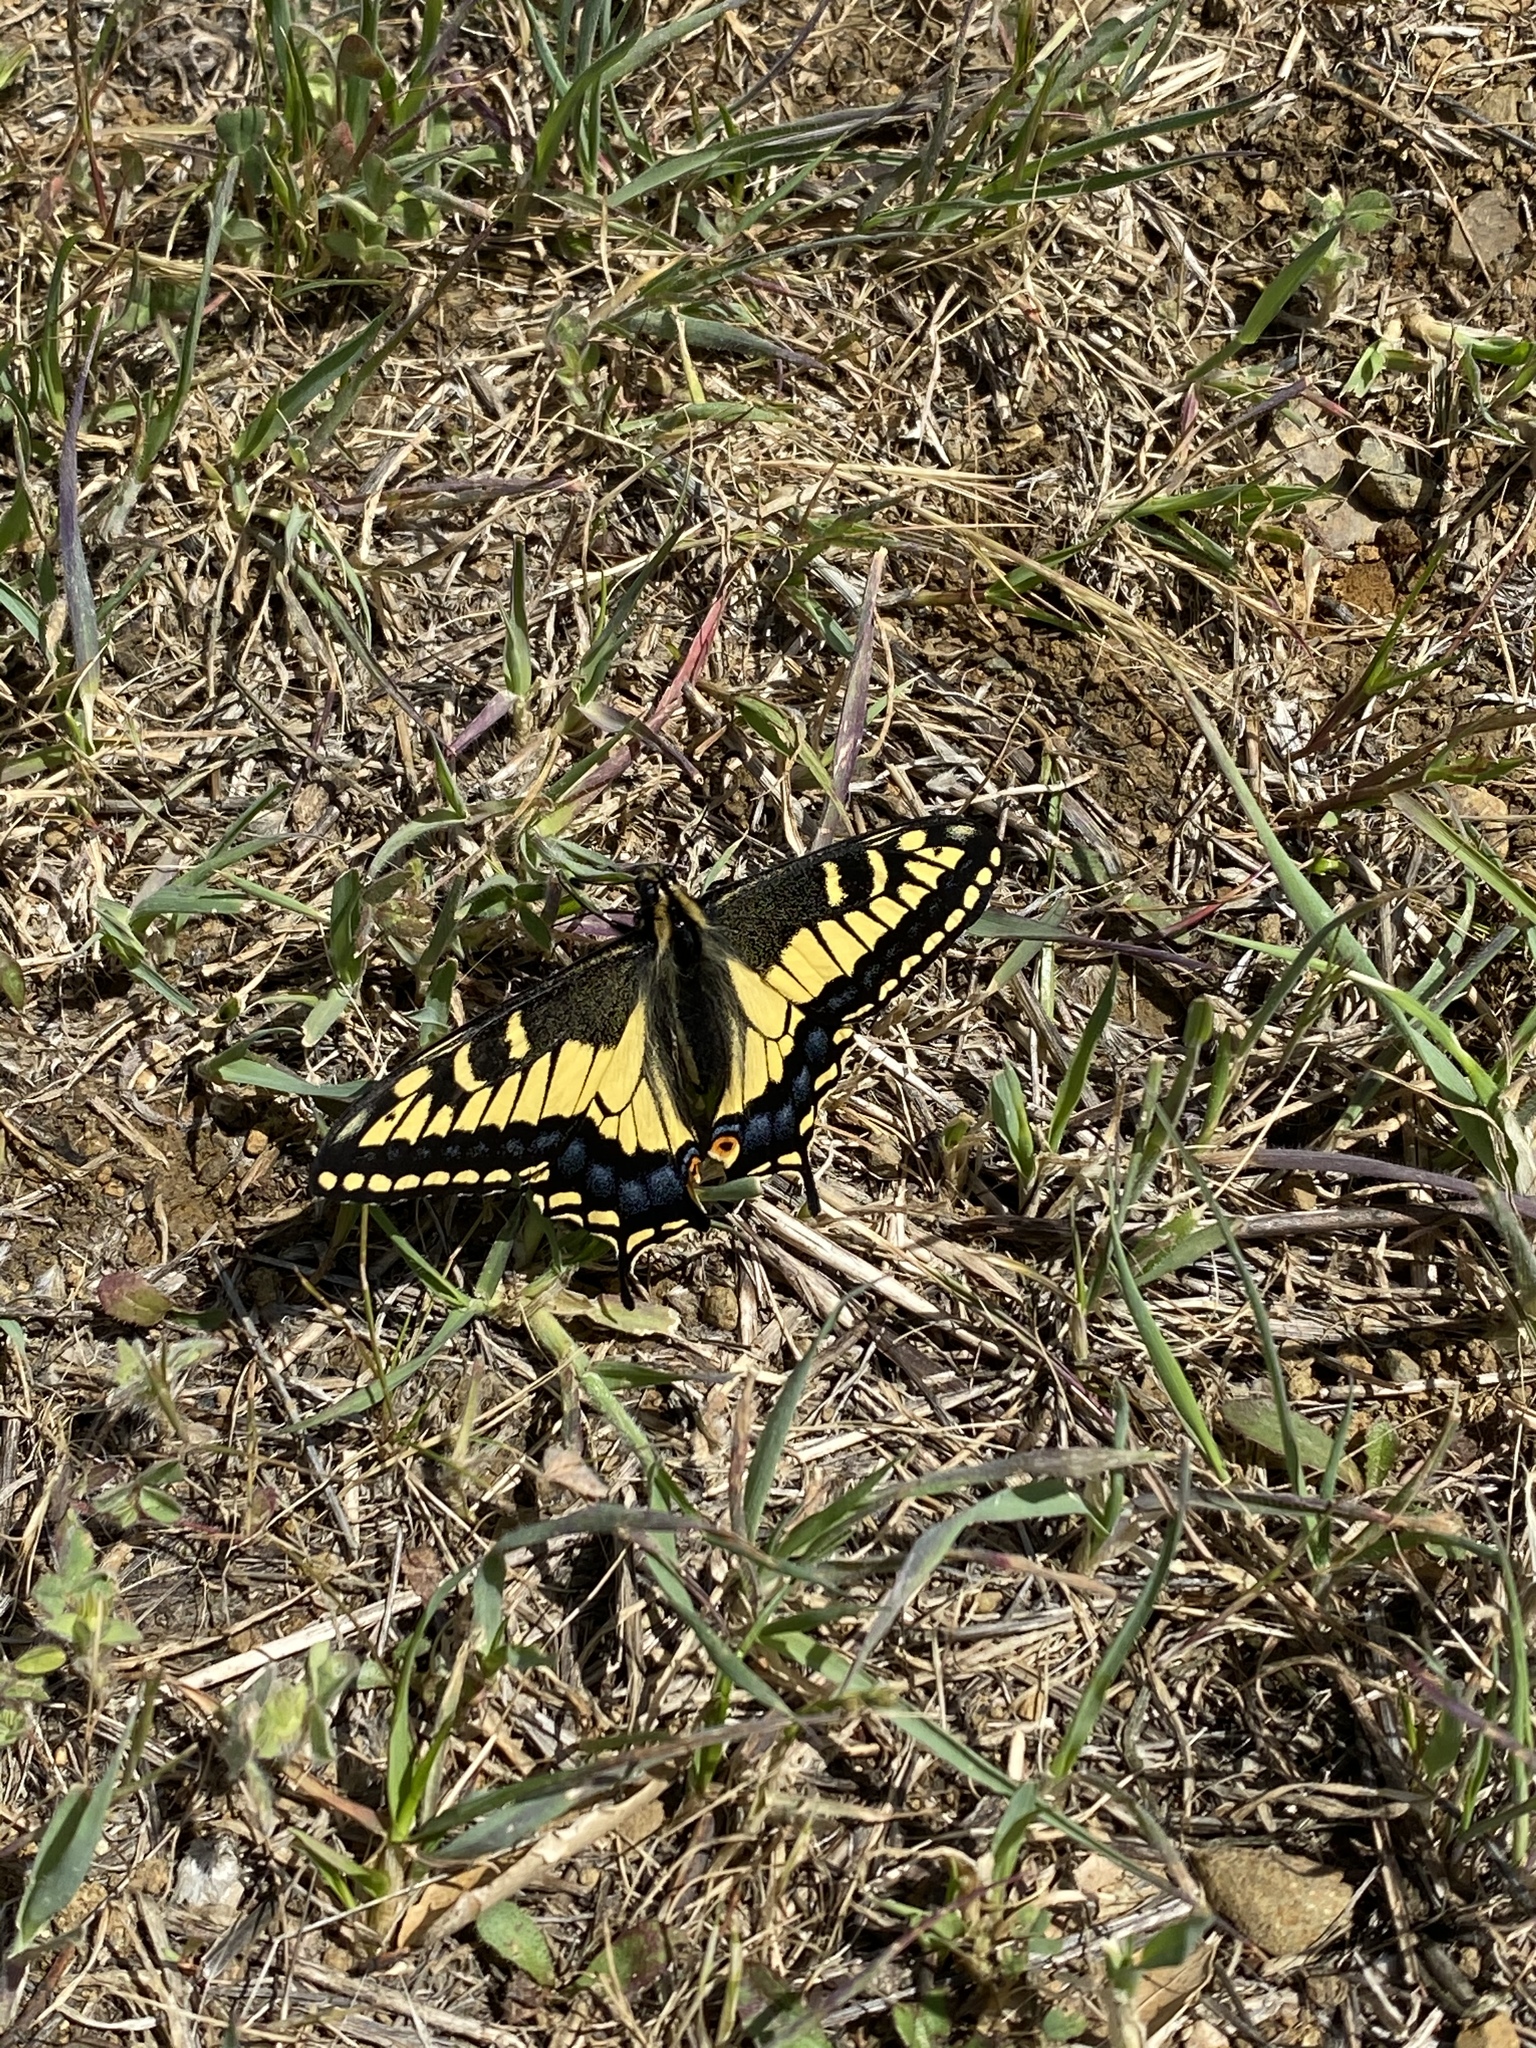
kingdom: Animalia
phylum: Arthropoda
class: Insecta
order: Lepidoptera
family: Papilionidae
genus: Papilio
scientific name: Papilio zelicaon
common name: Anise swallowtail
